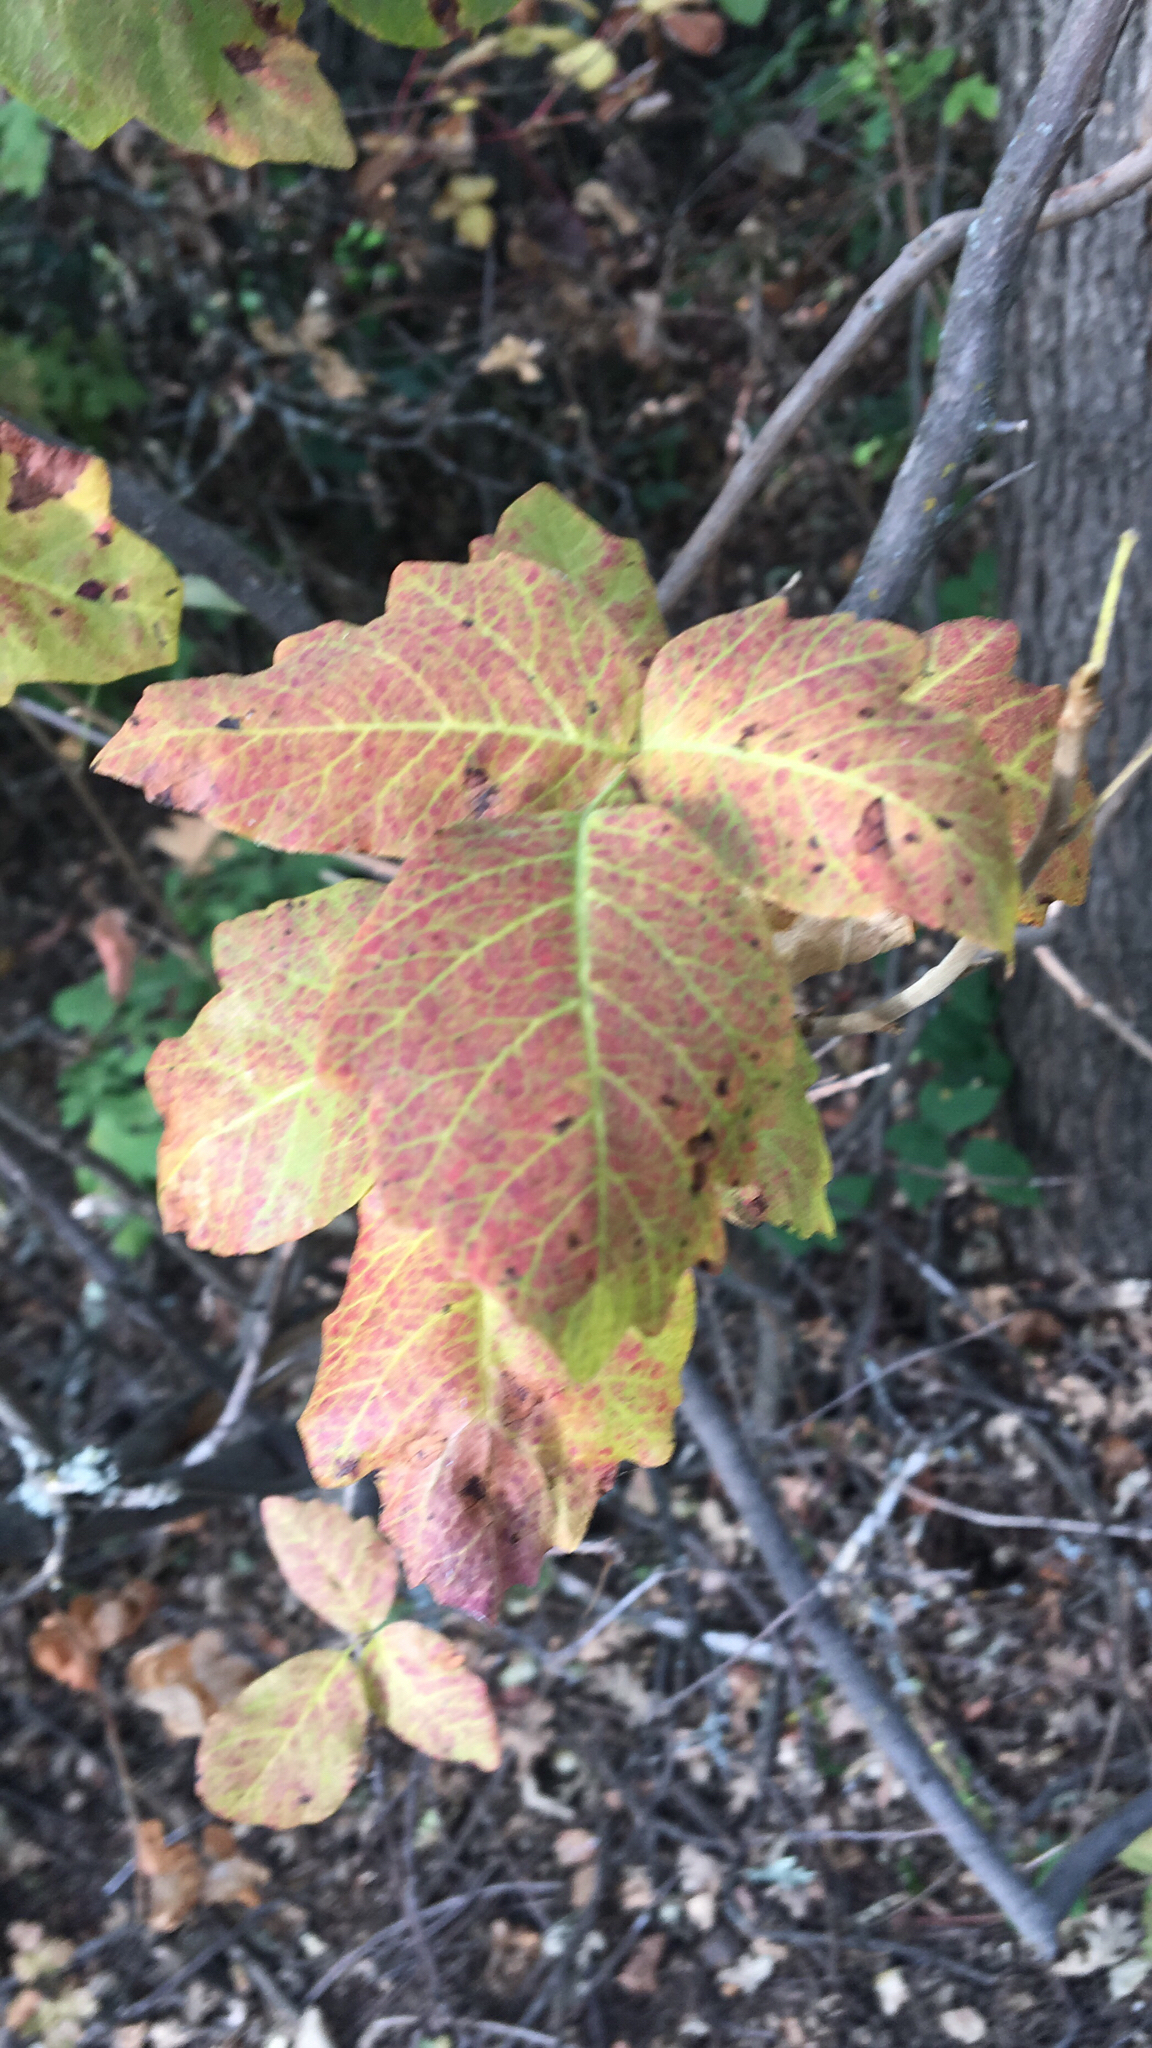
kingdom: Plantae
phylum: Tracheophyta
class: Magnoliopsida
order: Sapindales
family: Anacardiaceae
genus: Toxicodendron
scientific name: Toxicodendron diversilobum
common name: Pacific poison-oak
